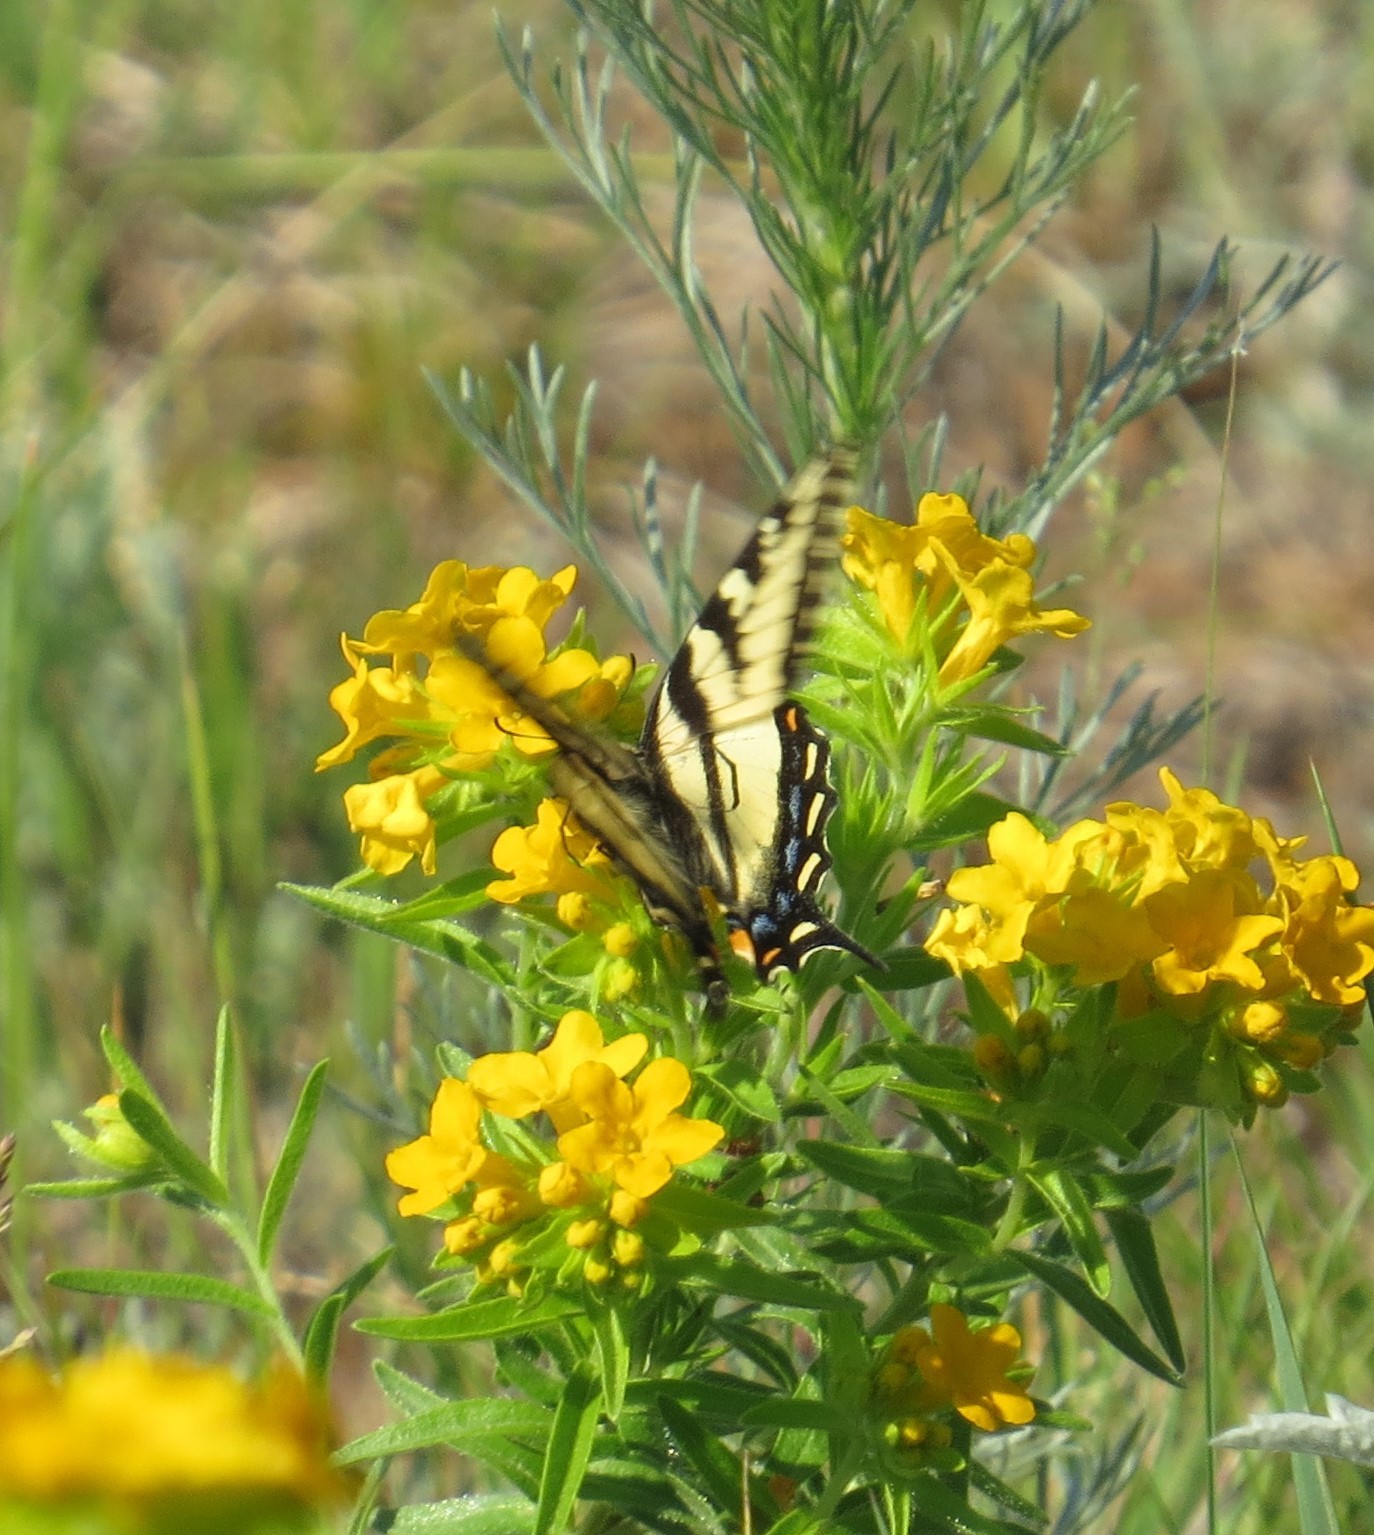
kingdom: Animalia
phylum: Arthropoda
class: Insecta
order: Lepidoptera
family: Papilionidae
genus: Papilio
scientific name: Papilio canadensis
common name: Canadian tiger swallowtail
